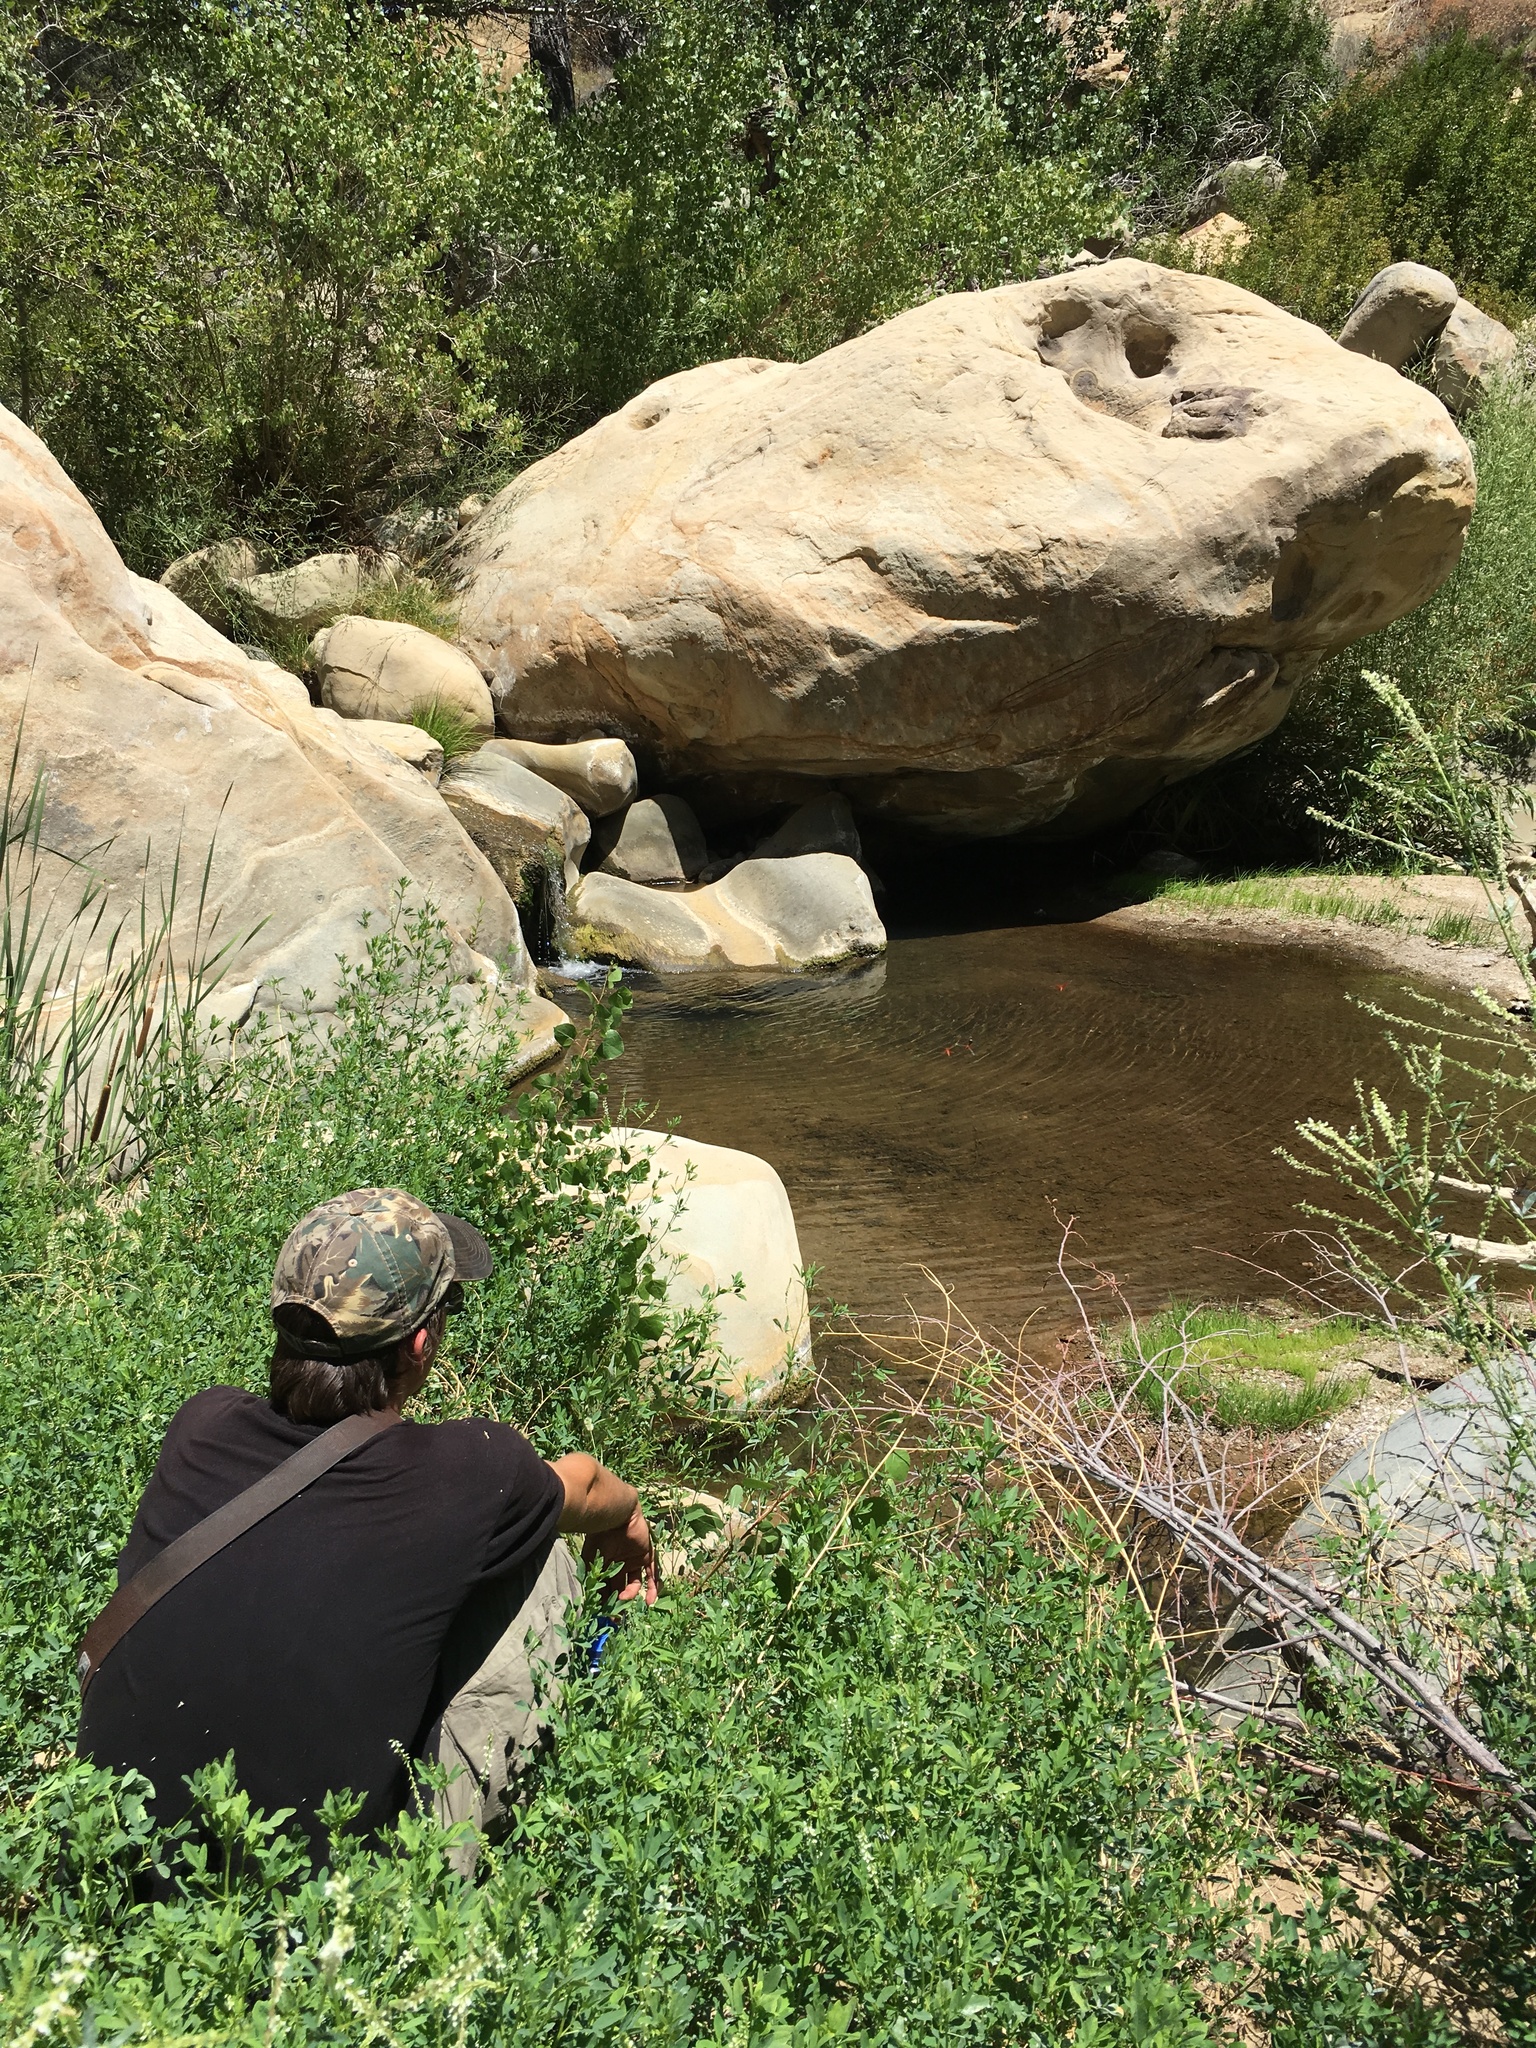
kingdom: Plantae
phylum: Tracheophyta
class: Magnoliopsida
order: Fabales
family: Fabaceae
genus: Melilotus
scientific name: Melilotus albus
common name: White melilot
